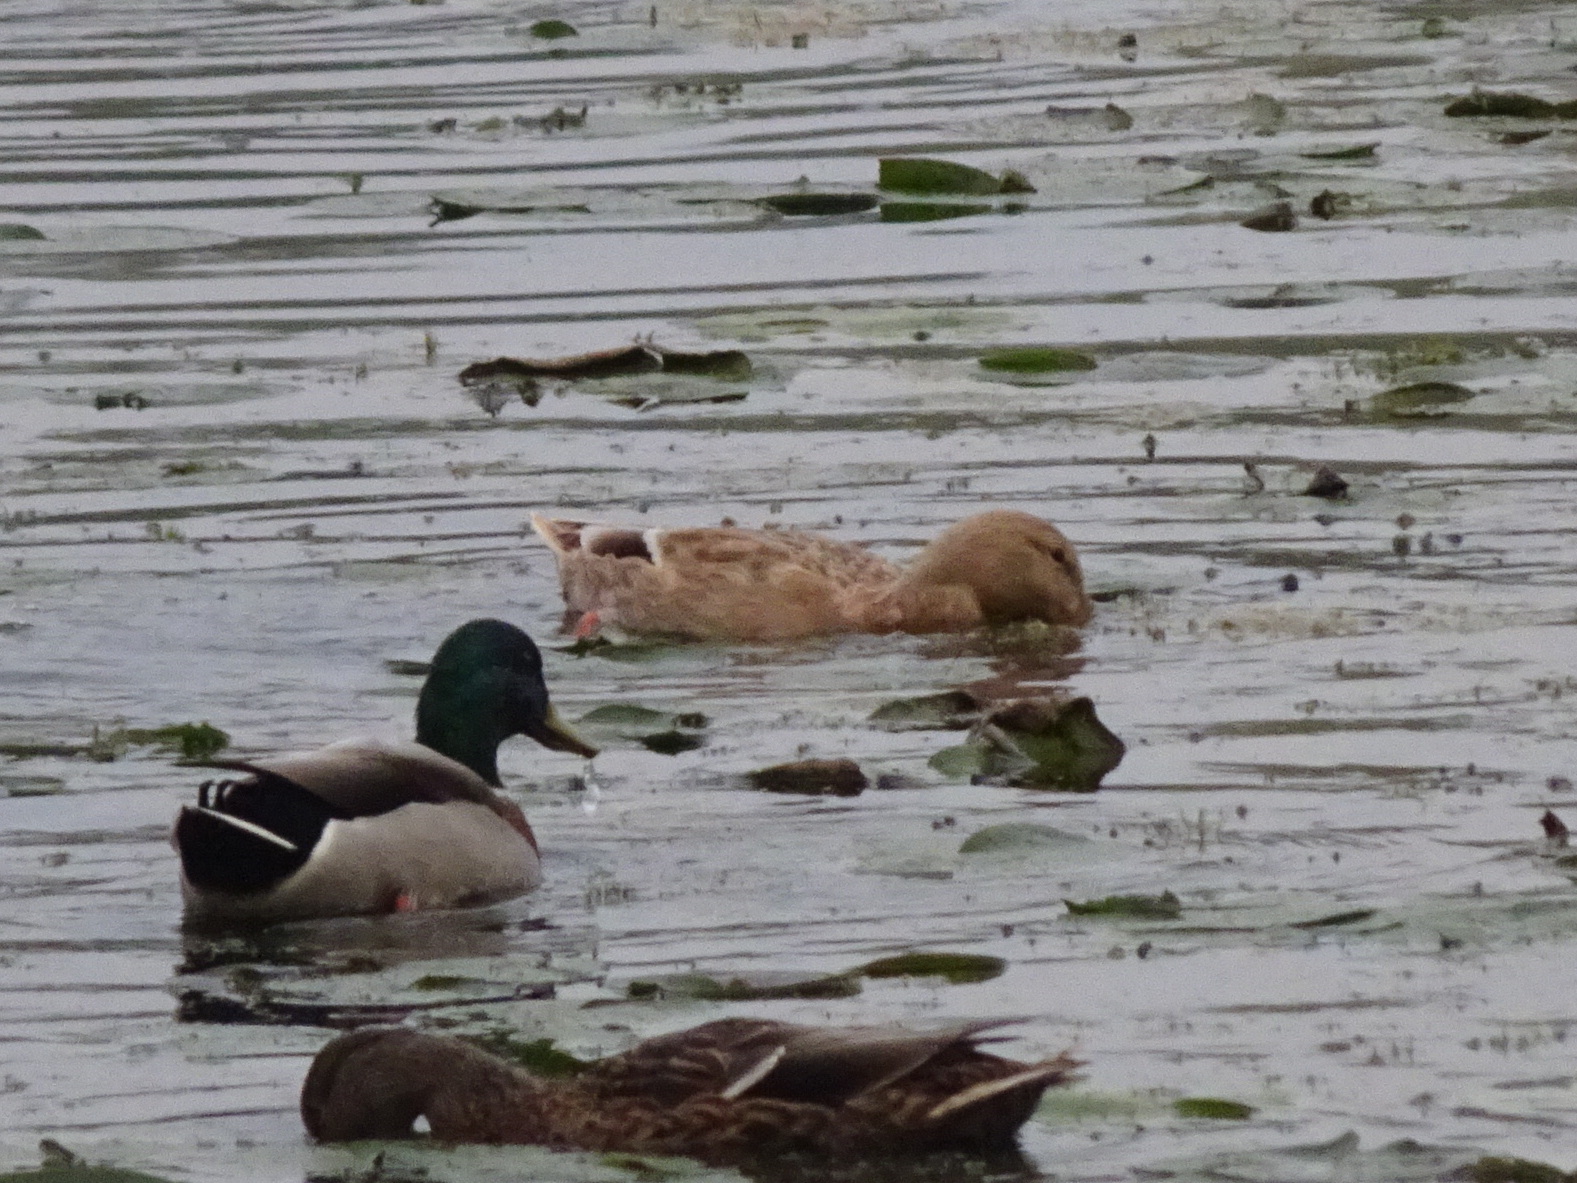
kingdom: Animalia
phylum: Chordata
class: Aves
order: Anseriformes
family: Anatidae
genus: Anas
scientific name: Anas platyrhynchos
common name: Mallard
